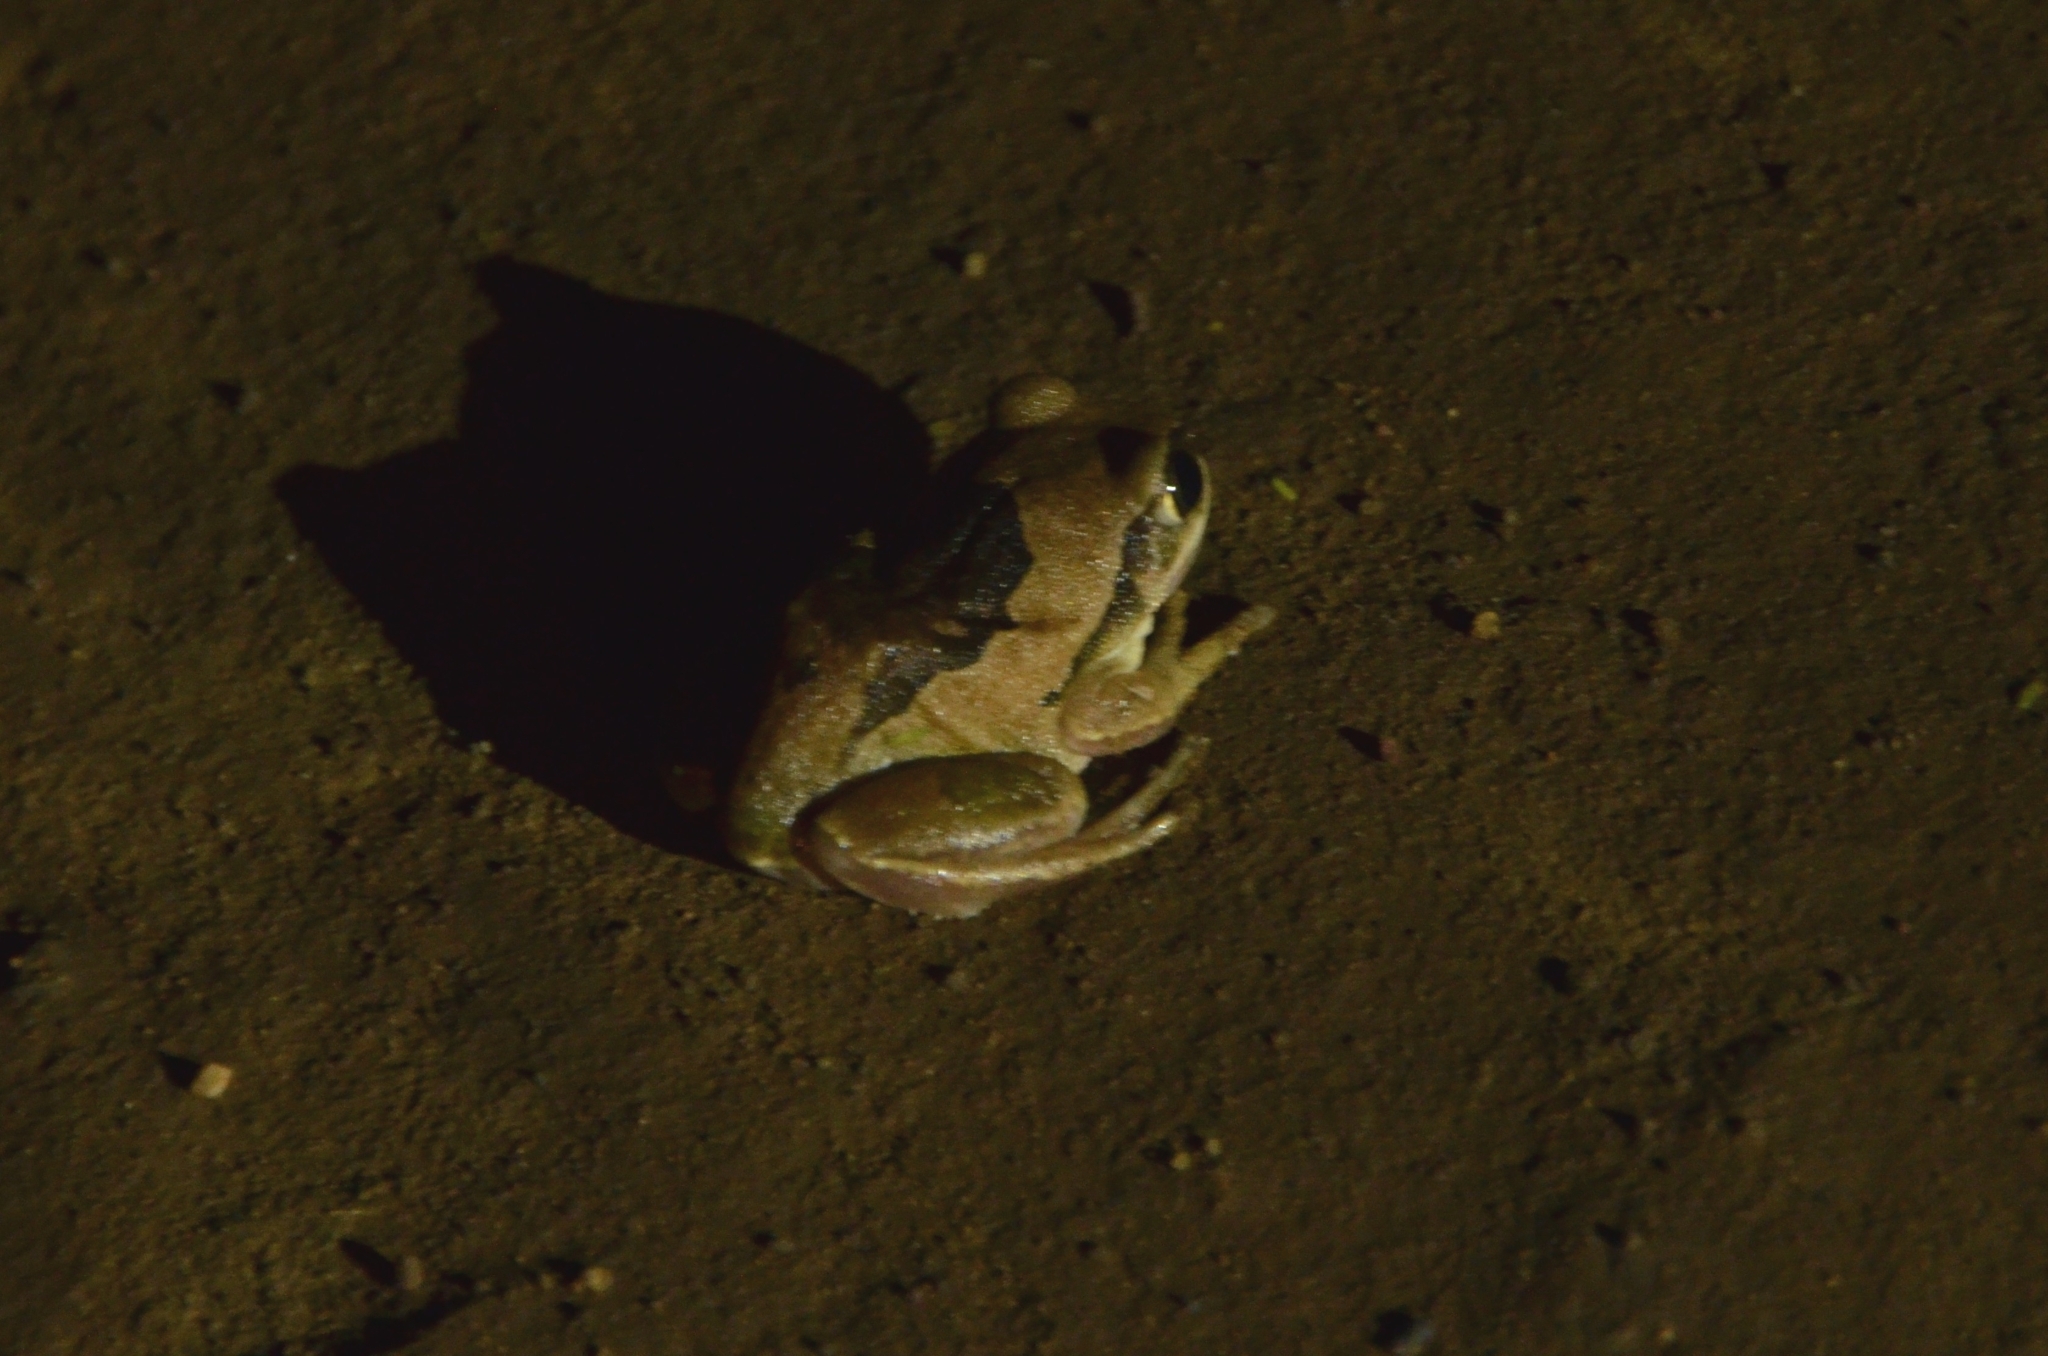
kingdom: Animalia
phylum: Chordata
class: Amphibia
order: Anura
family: Arthroleptidae
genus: Leptopelis
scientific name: Leptopelis mossambicus
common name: Mozambique tree frog
